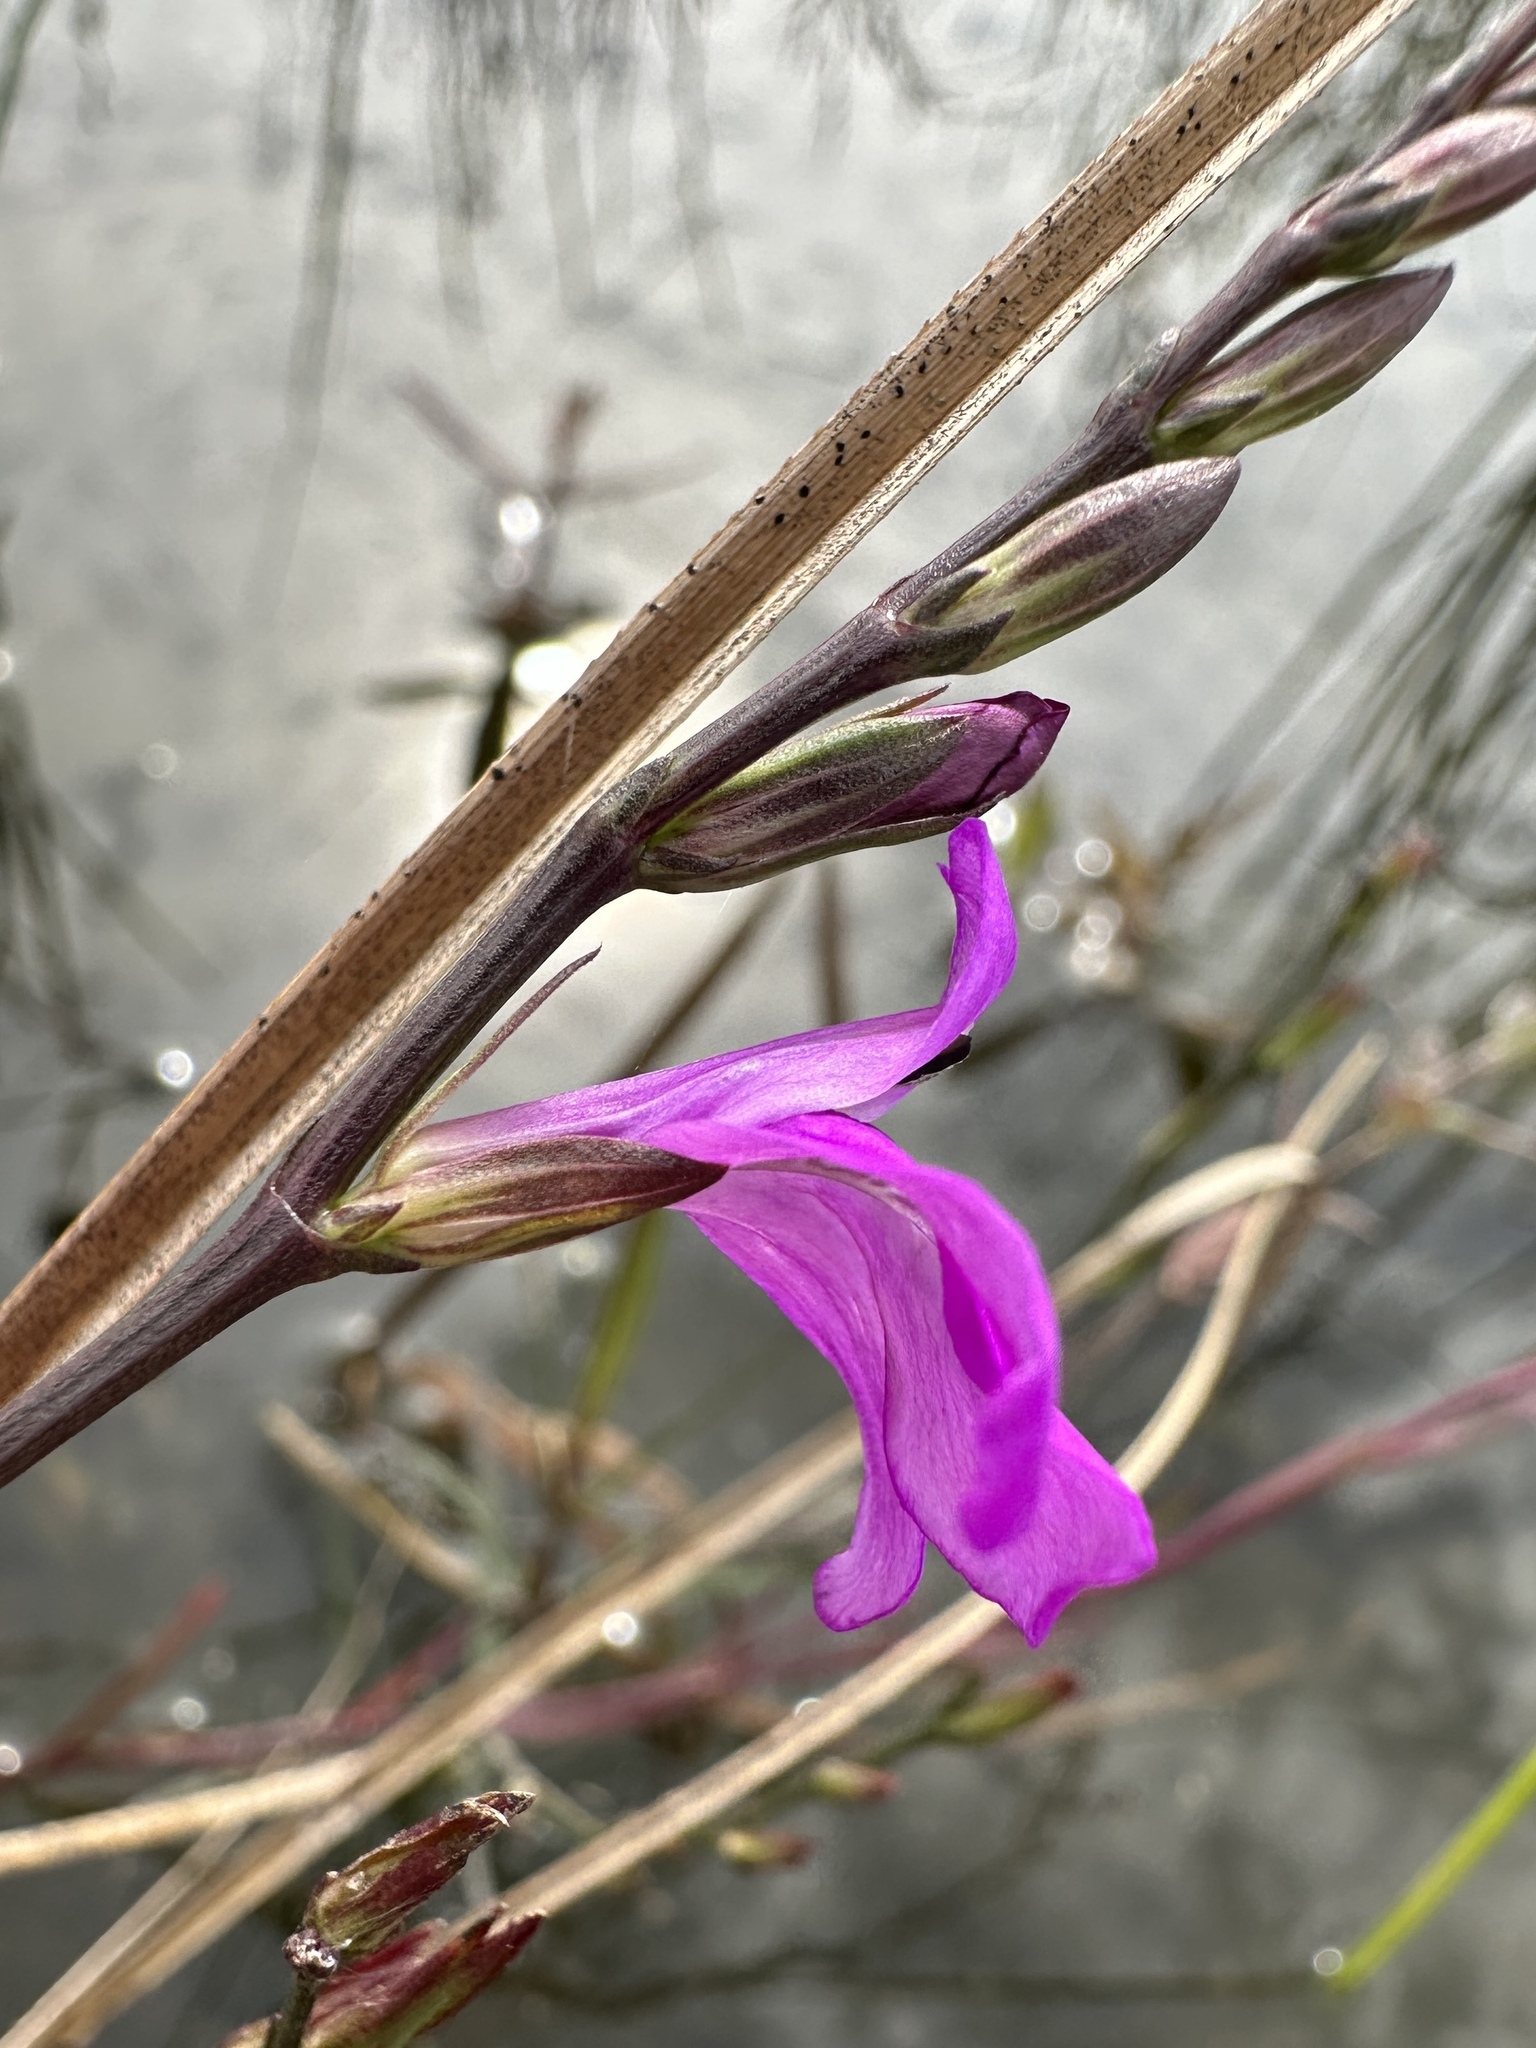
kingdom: Plantae
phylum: Tracheophyta
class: Magnoliopsida
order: Lamiales
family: Acanthaceae
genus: Dianthera
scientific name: Dianthera angusta
